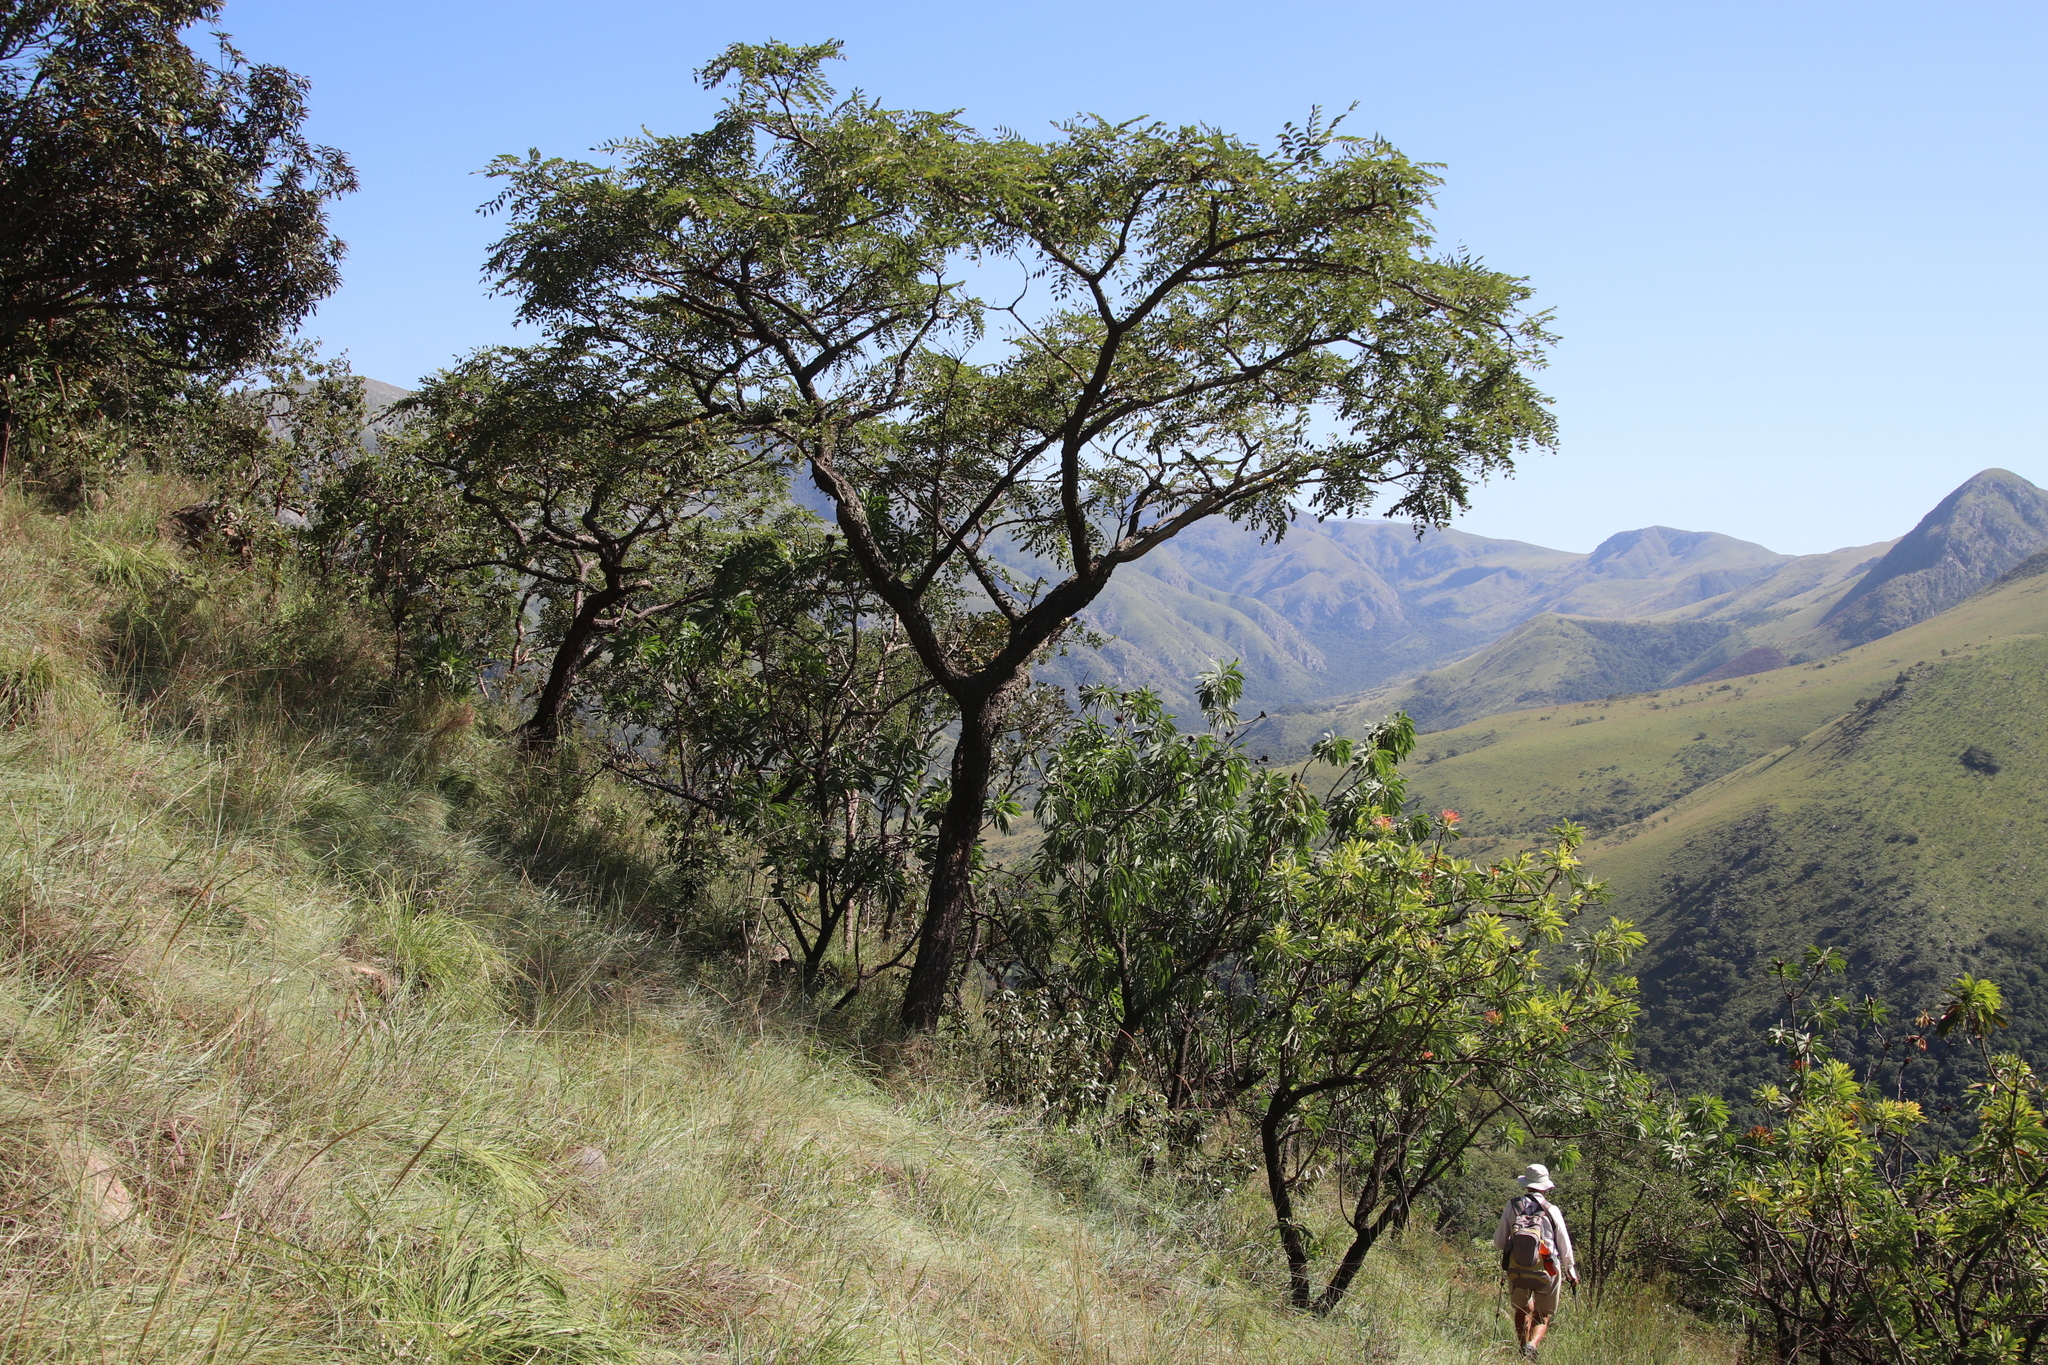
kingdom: Plantae
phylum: Tracheophyta
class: Magnoliopsida
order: Fabales
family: Fabaceae
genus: Pterocarpus
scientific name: Pterocarpus angolensis
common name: Bloodwood tree
